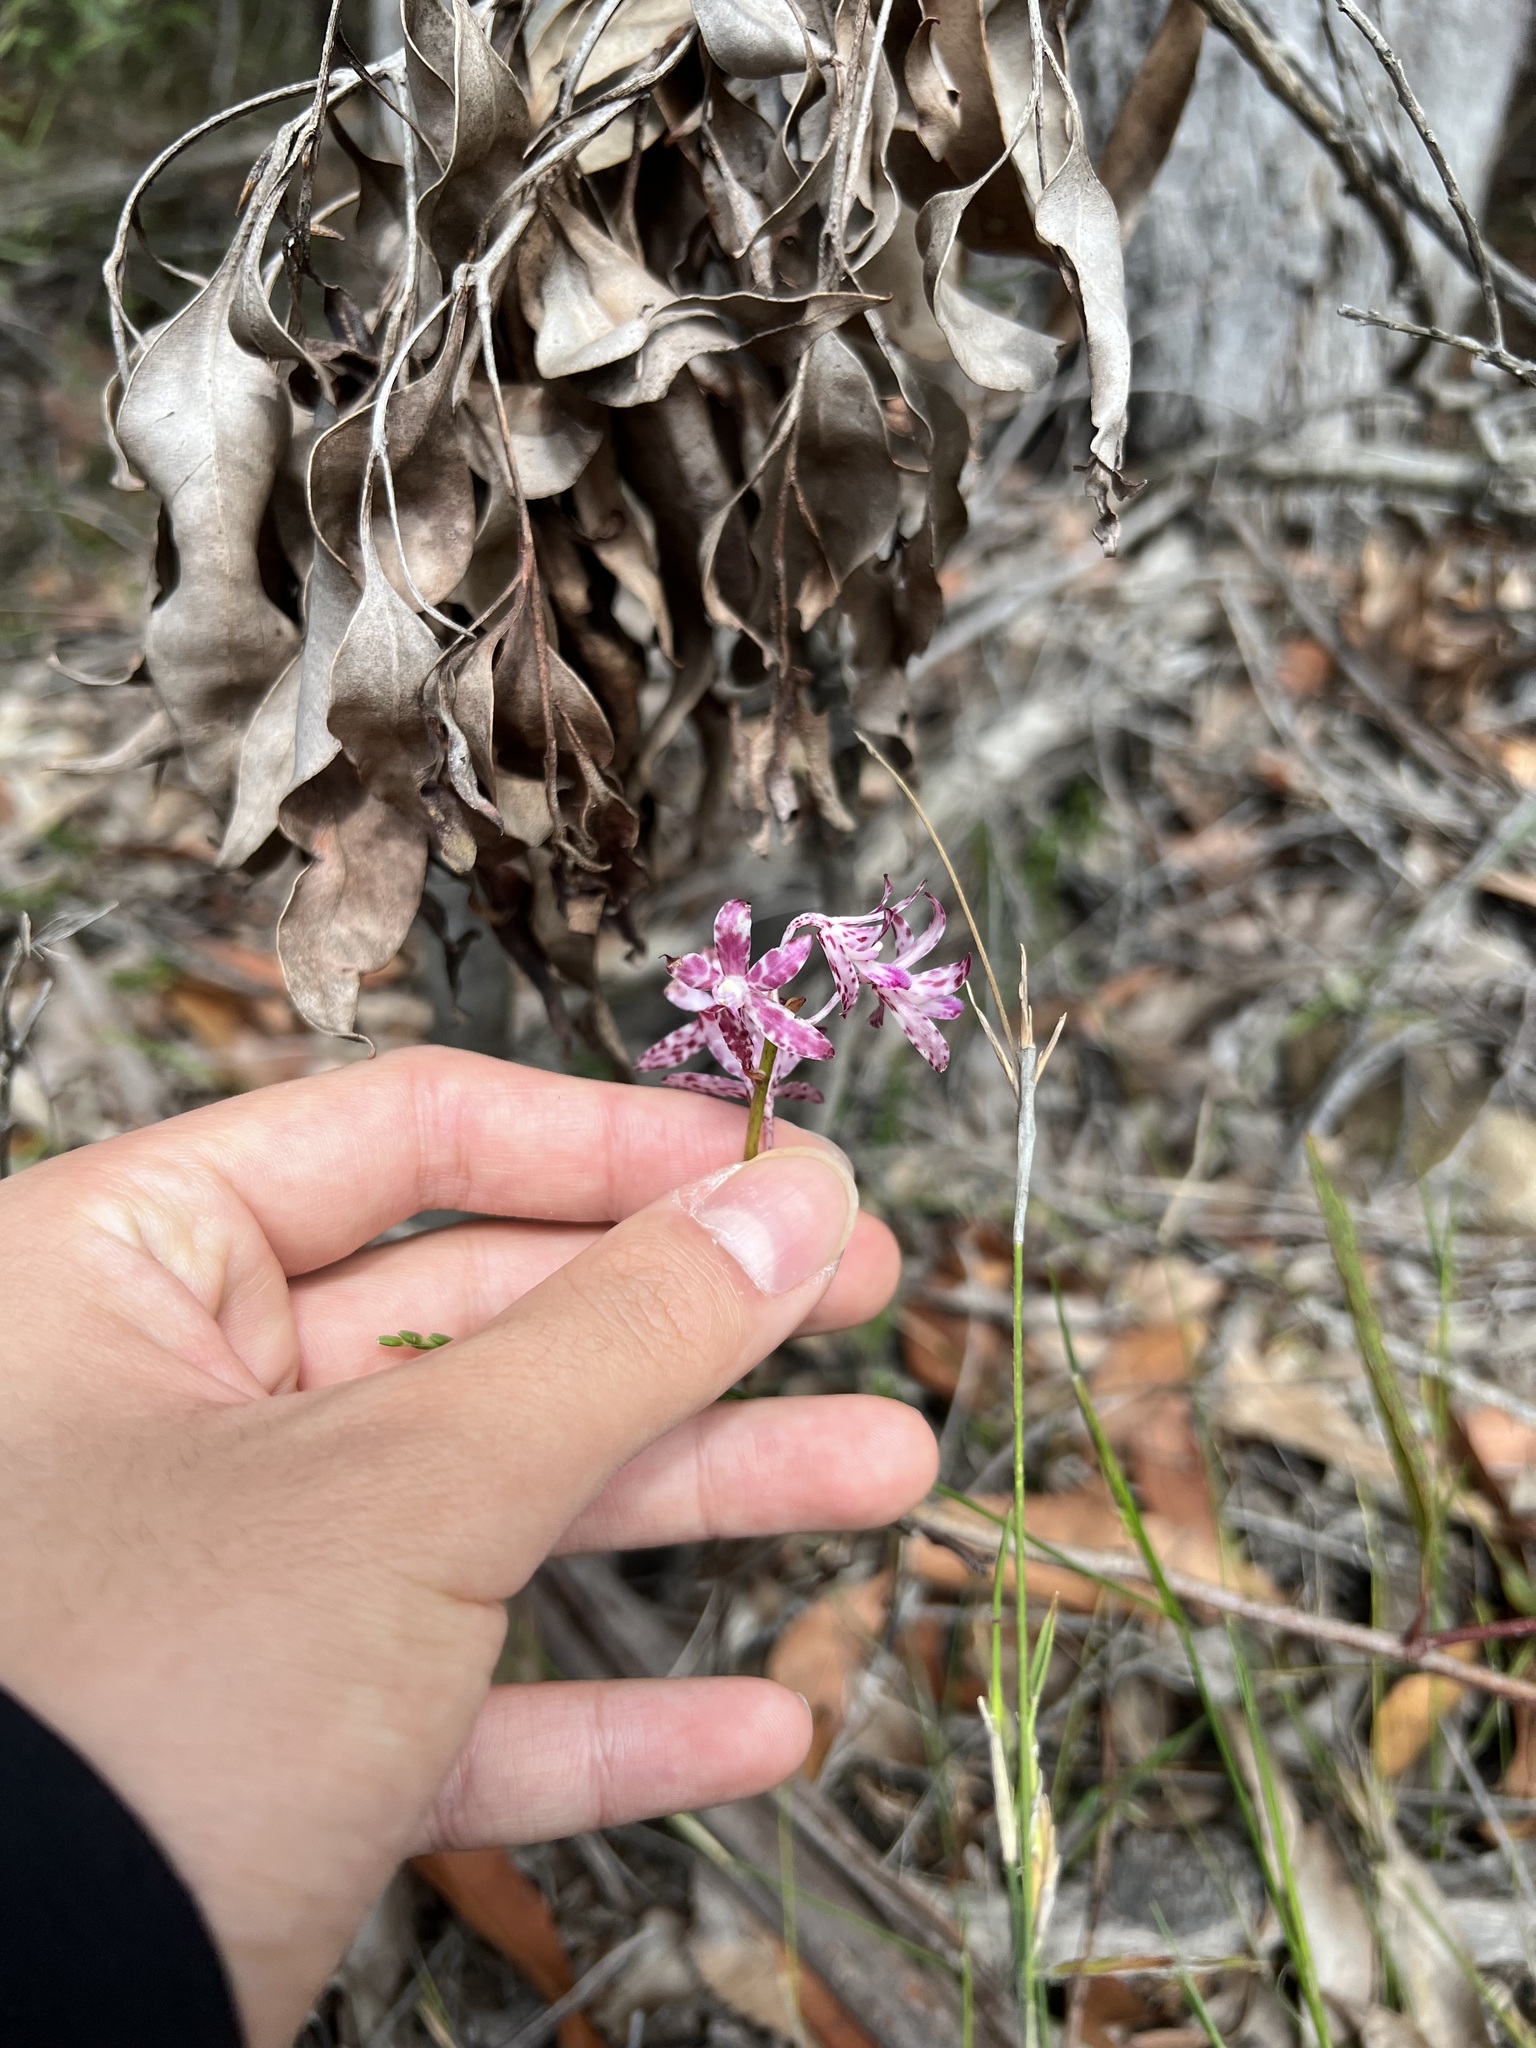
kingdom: Plantae
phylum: Tracheophyta
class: Liliopsida
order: Asparagales
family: Orchidaceae
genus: Dipodium
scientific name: Dipodium variegatum
